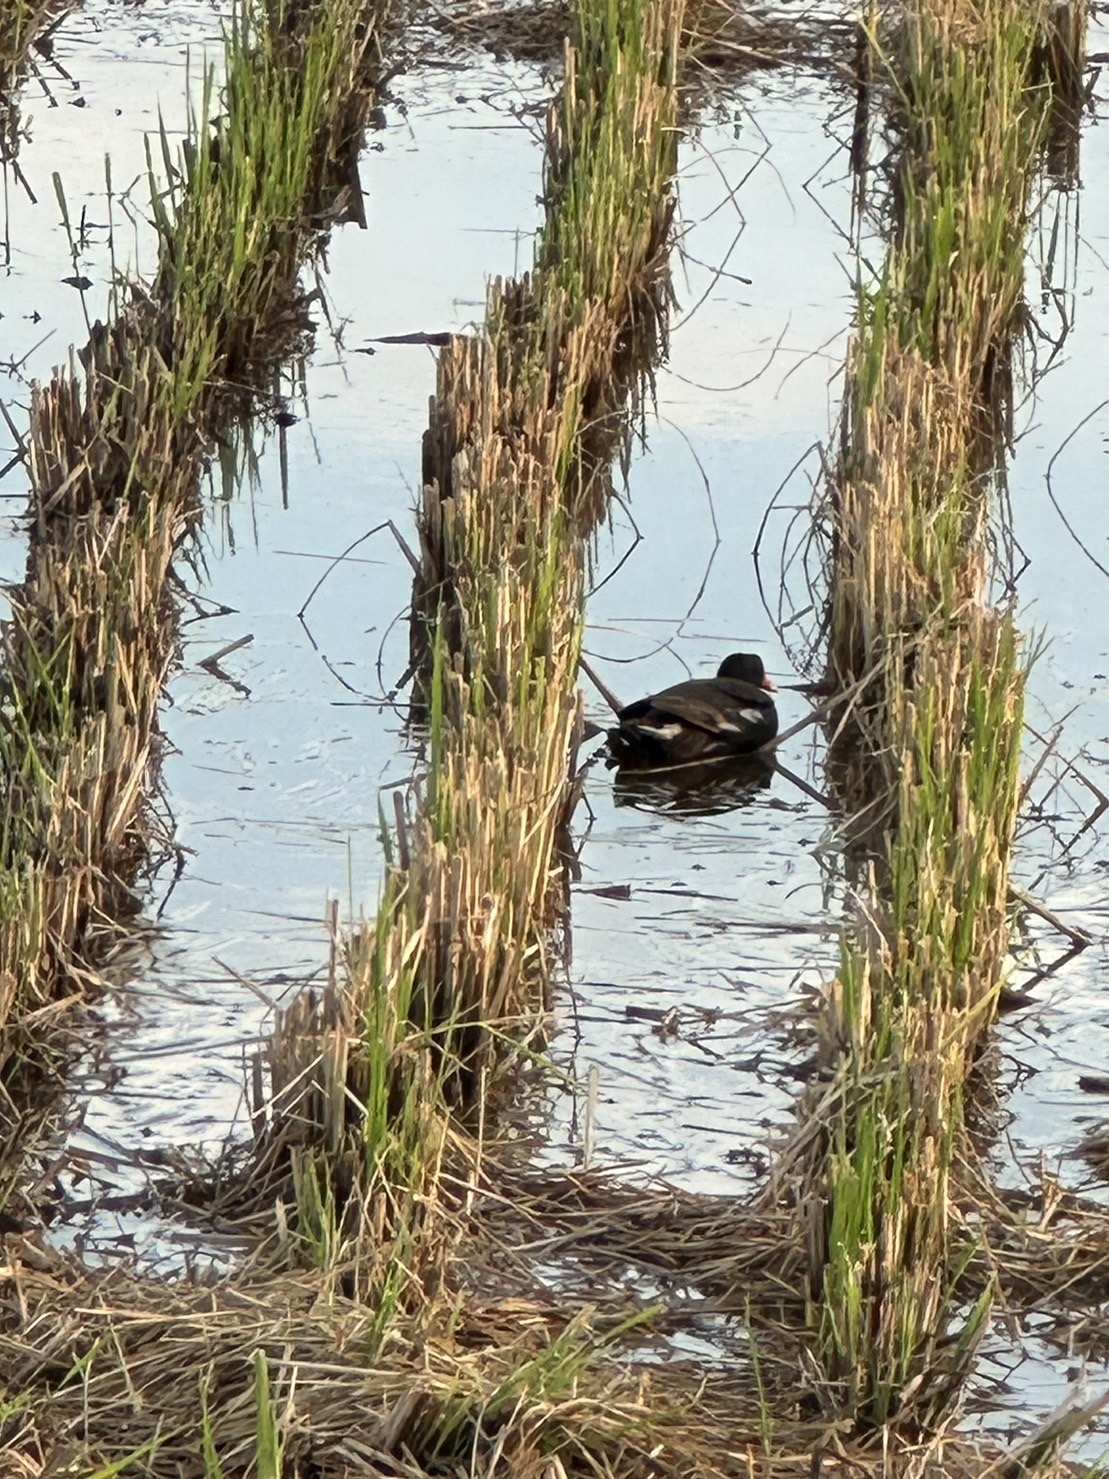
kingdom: Animalia
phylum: Chordata
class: Aves
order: Gruiformes
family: Rallidae
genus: Gallinula
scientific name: Gallinula chloropus
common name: Common moorhen
